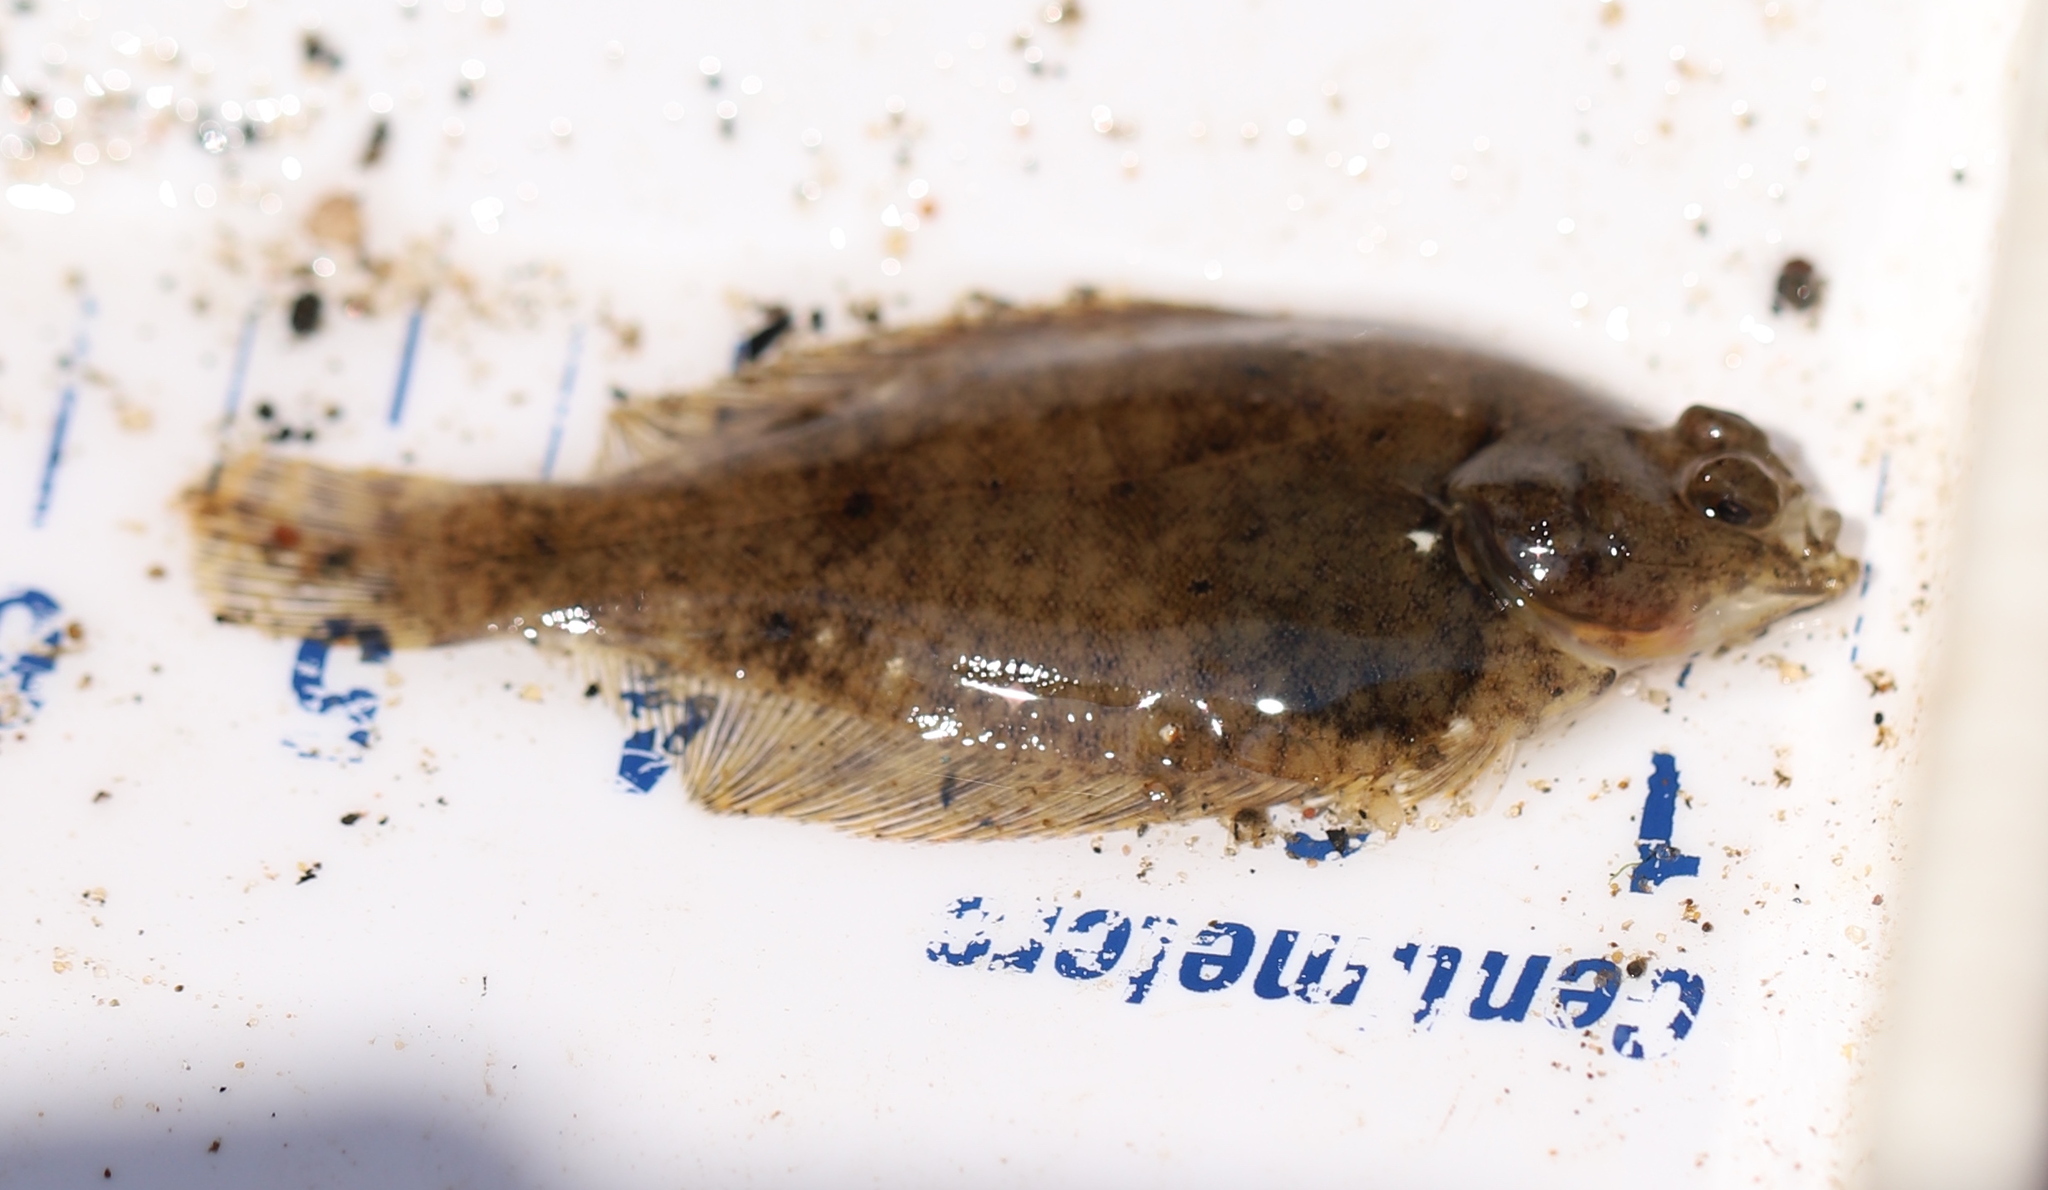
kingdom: Animalia
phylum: Chordata
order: Pleuronectiformes
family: Pleuronectidae
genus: Pseudopleuronectes
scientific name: Pseudopleuronectes americanus
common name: Black backs
